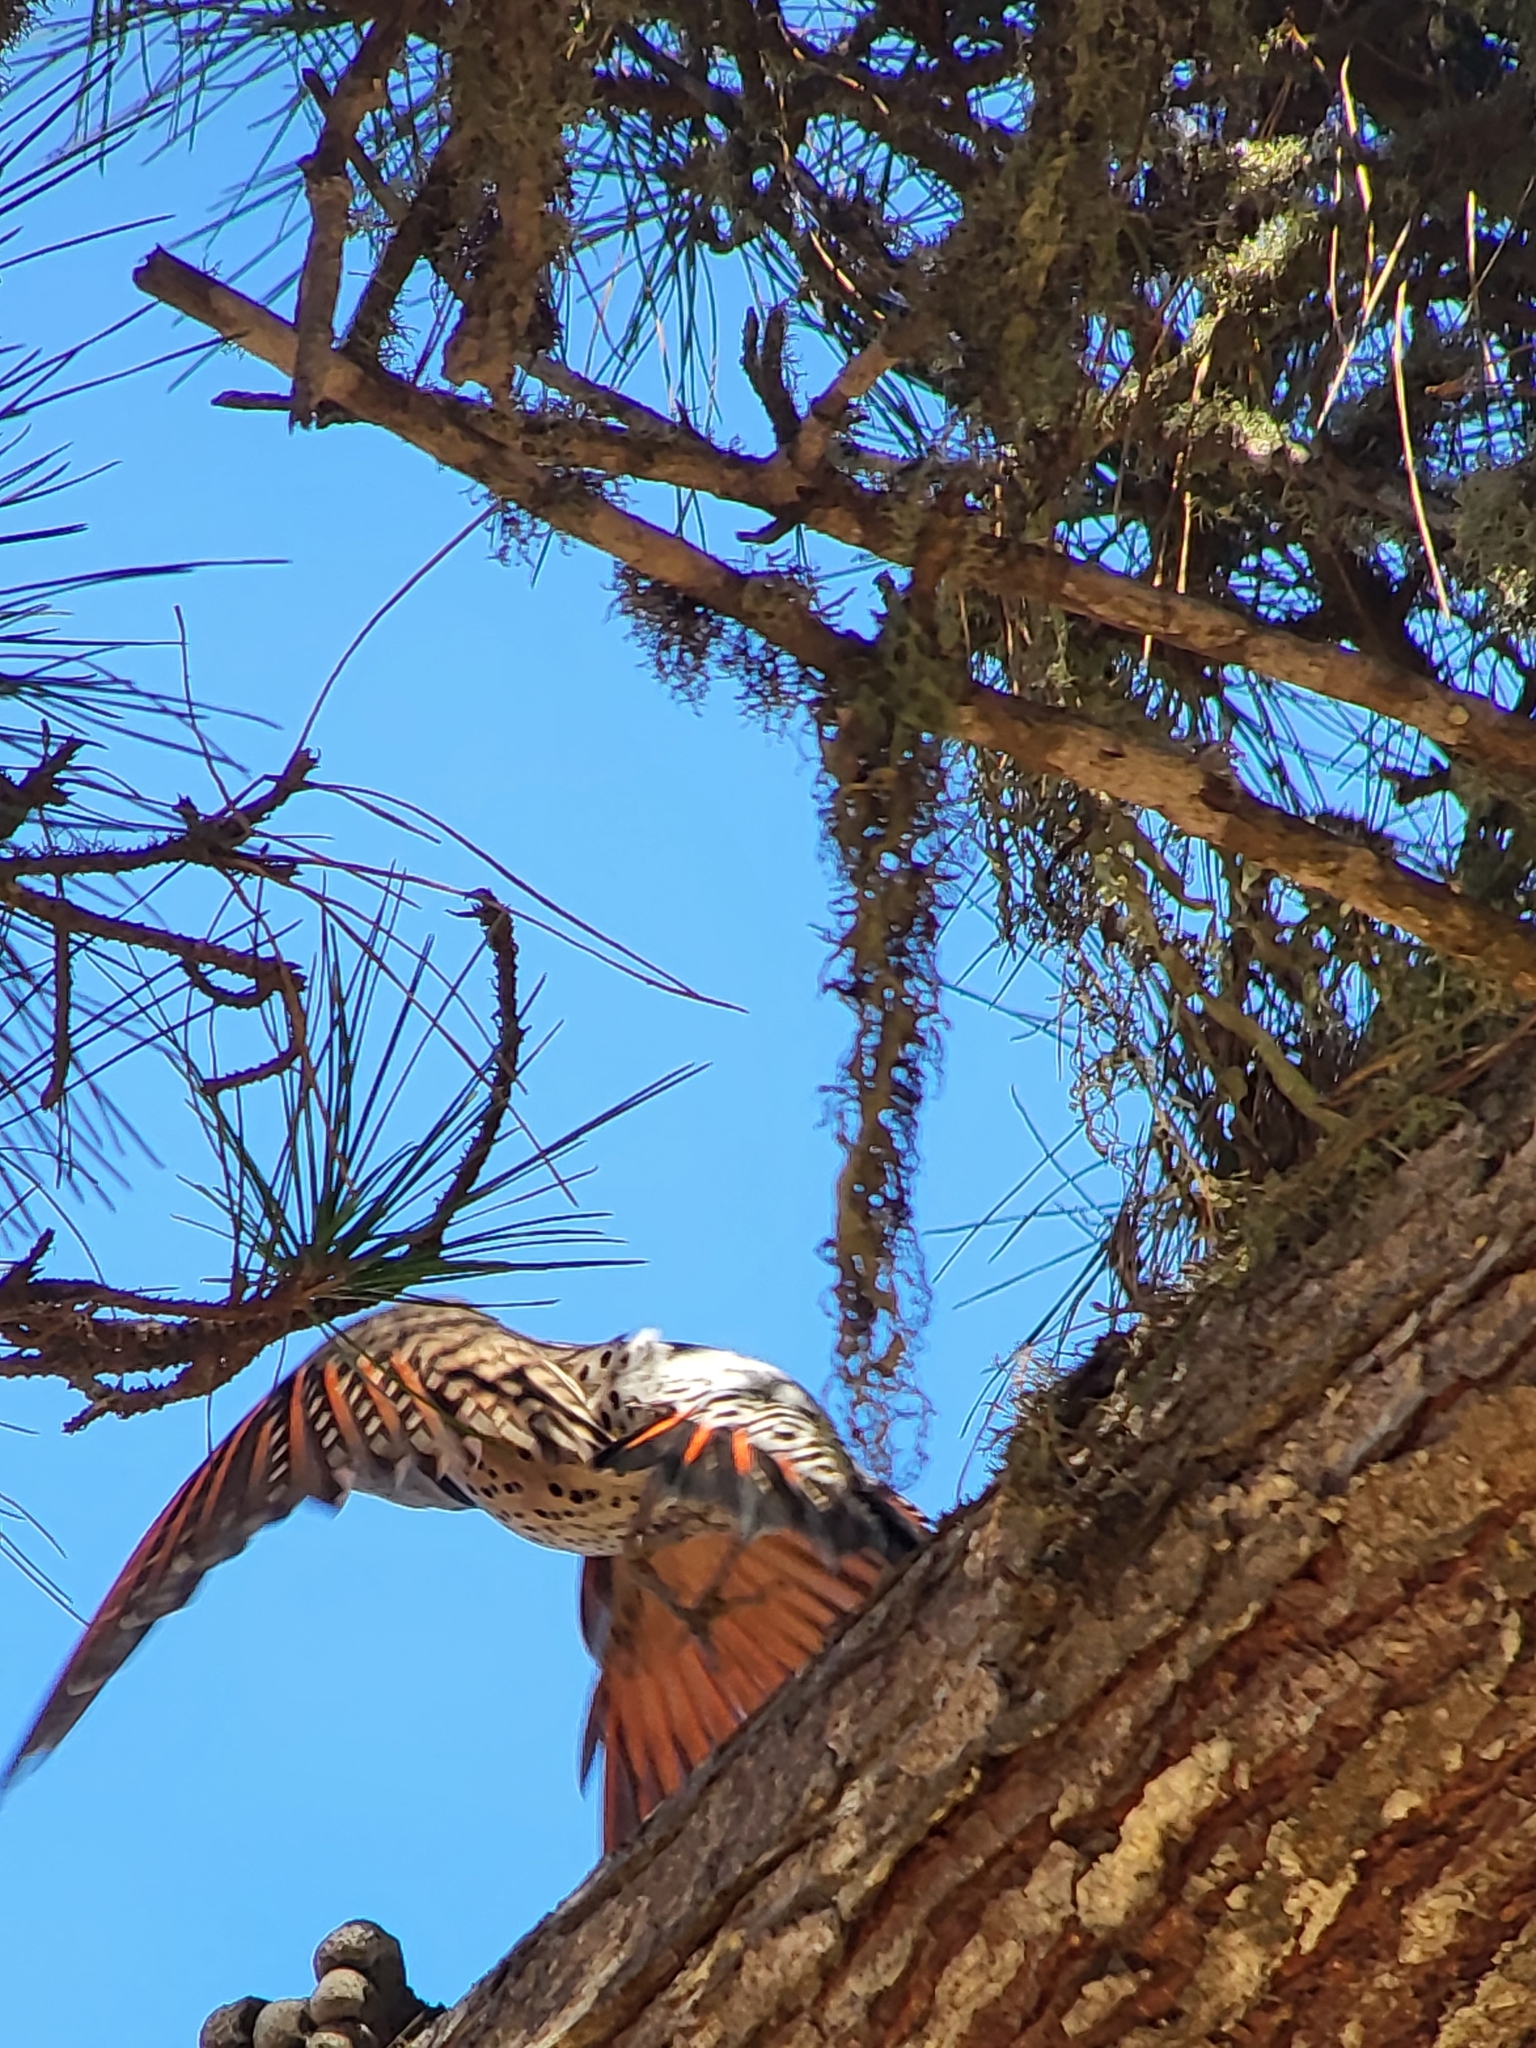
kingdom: Animalia
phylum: Chordata
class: Aves
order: Piciformes
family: Picidae
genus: Colaptes
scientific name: Colaptes auratus
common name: Northern flicker
